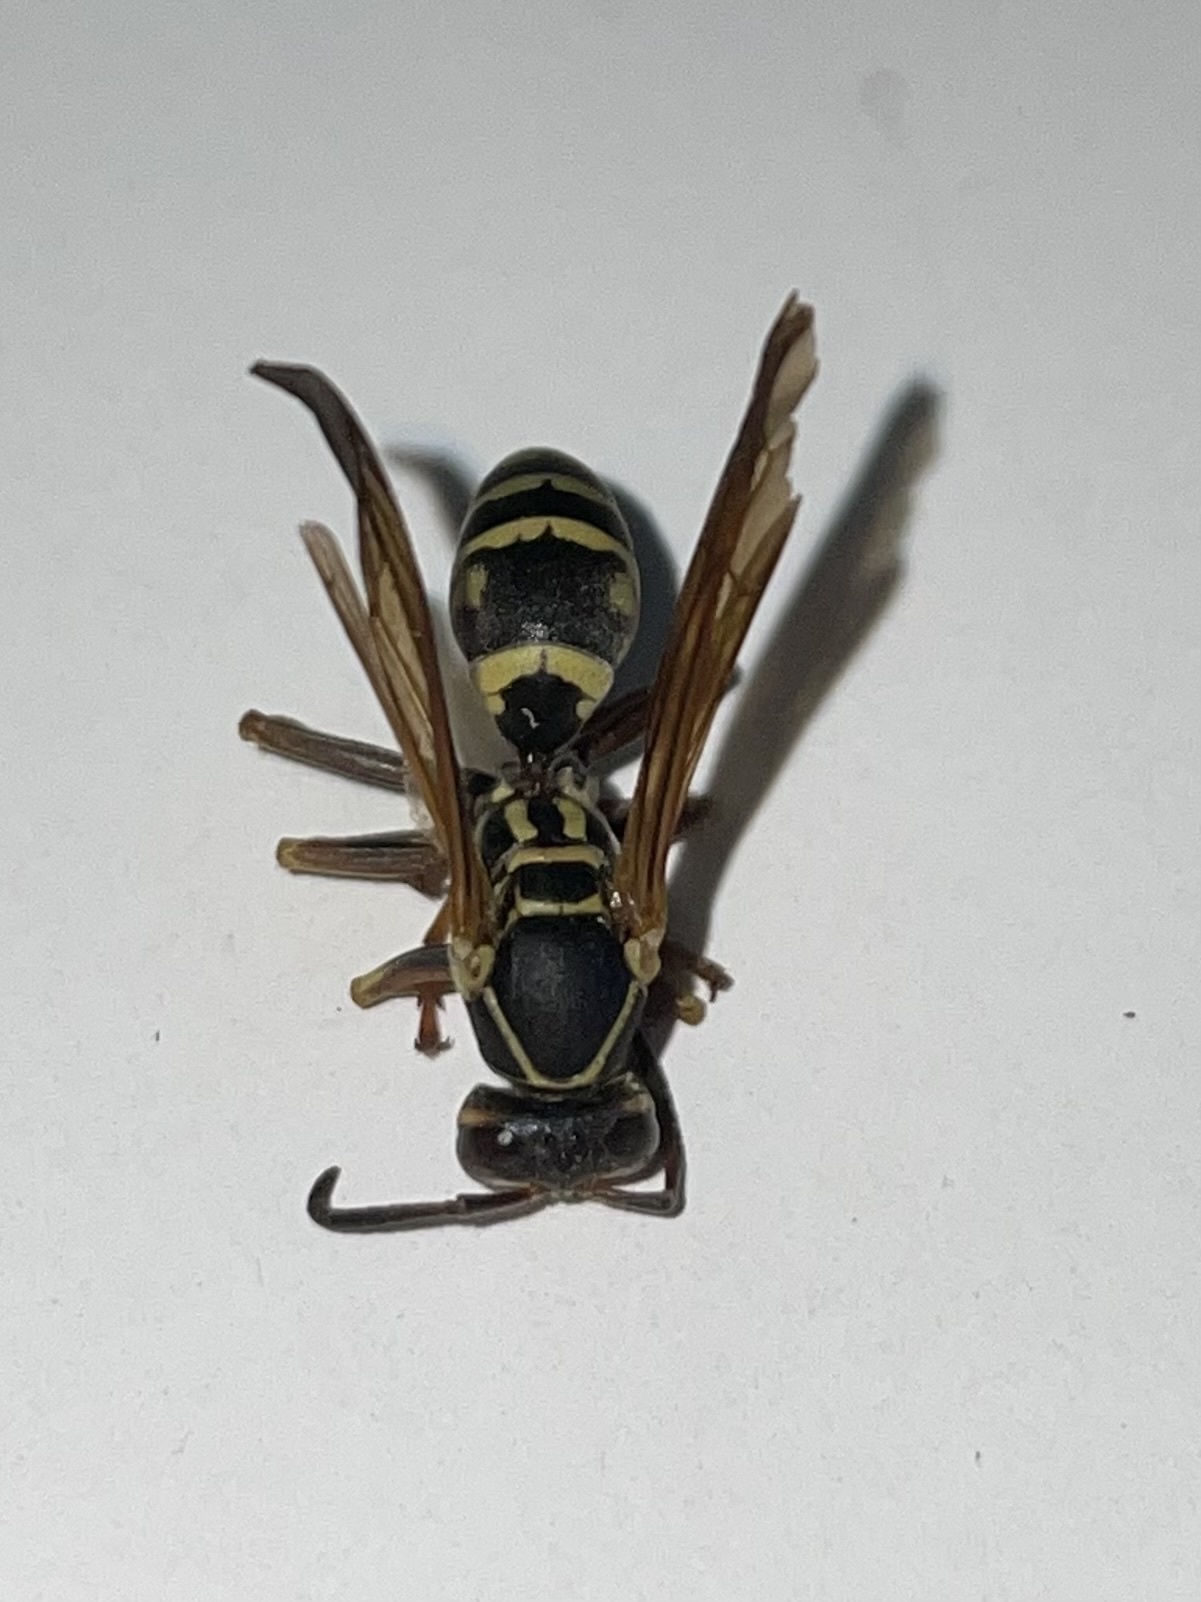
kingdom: Animalia
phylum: Arthropoda
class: Insecta
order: Hymenoptera
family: Eumenidae
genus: Polistes
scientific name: Polistes fuscatus
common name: Dark paper wasp
